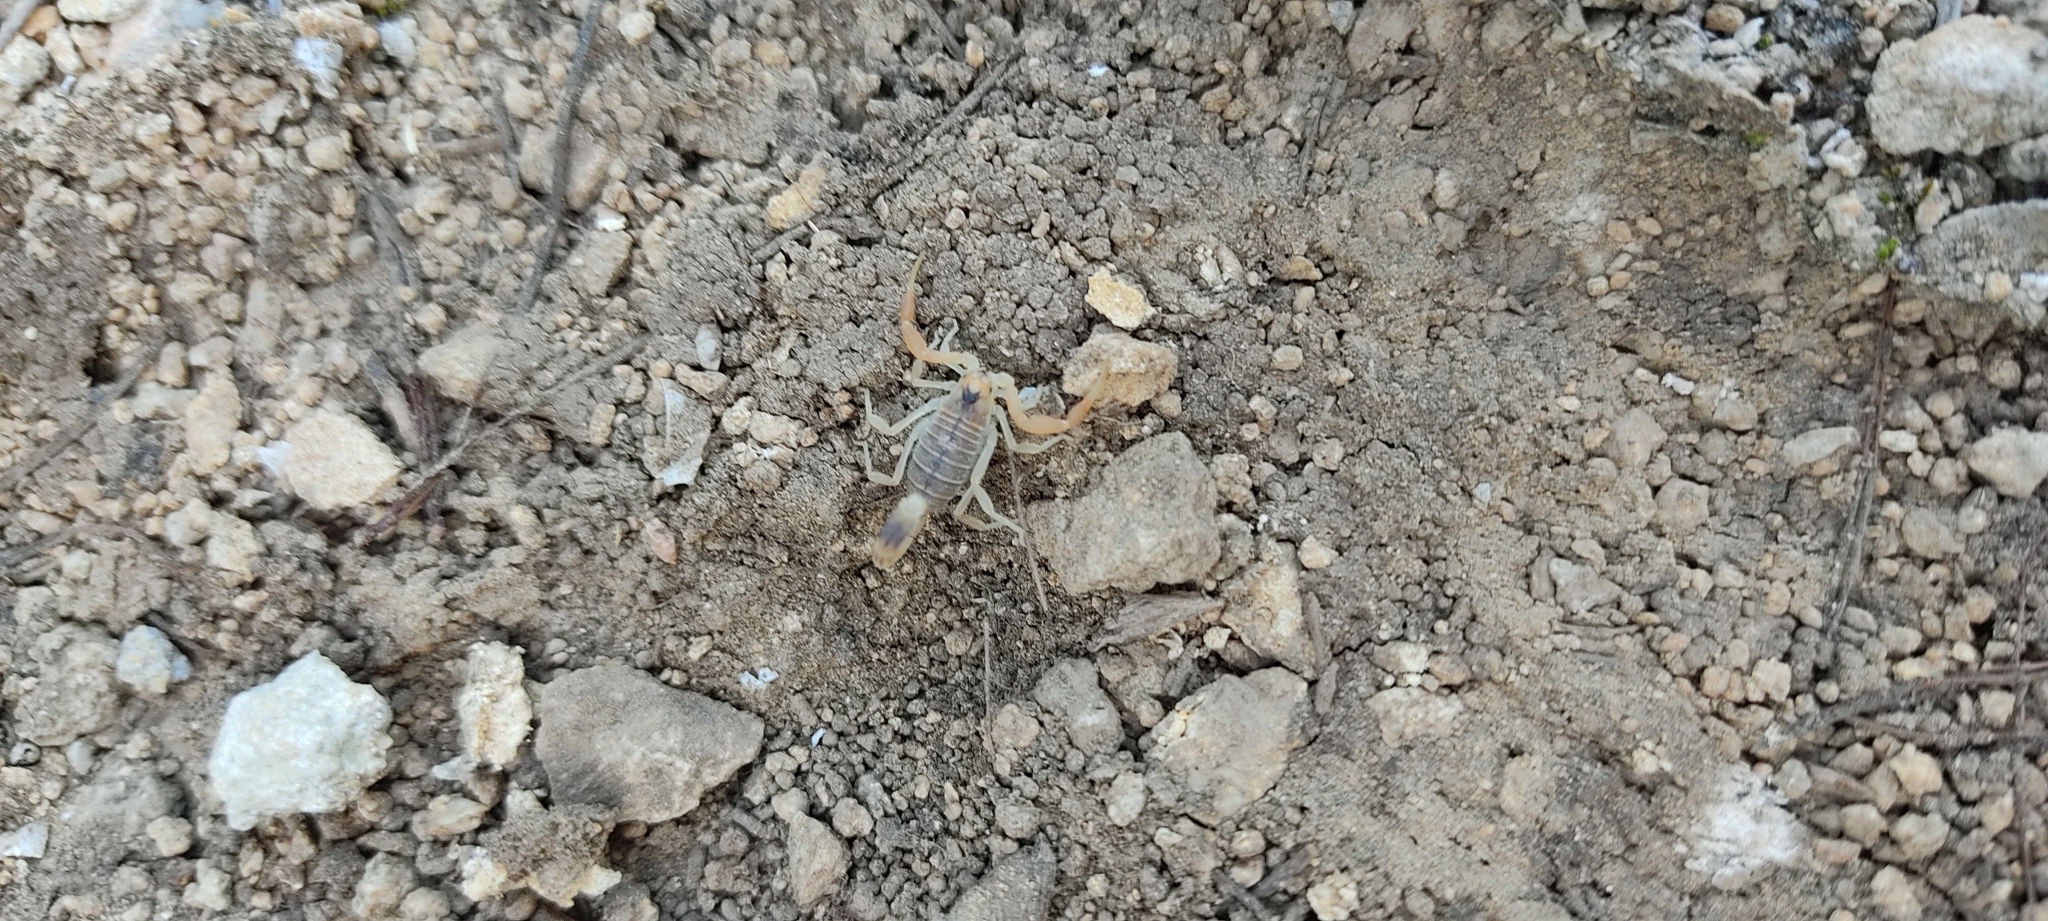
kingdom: Animalia
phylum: Arthropoda
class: Arachnida
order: Scorpiones
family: Buthidae
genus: Buthus
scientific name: Buthus occitanus
